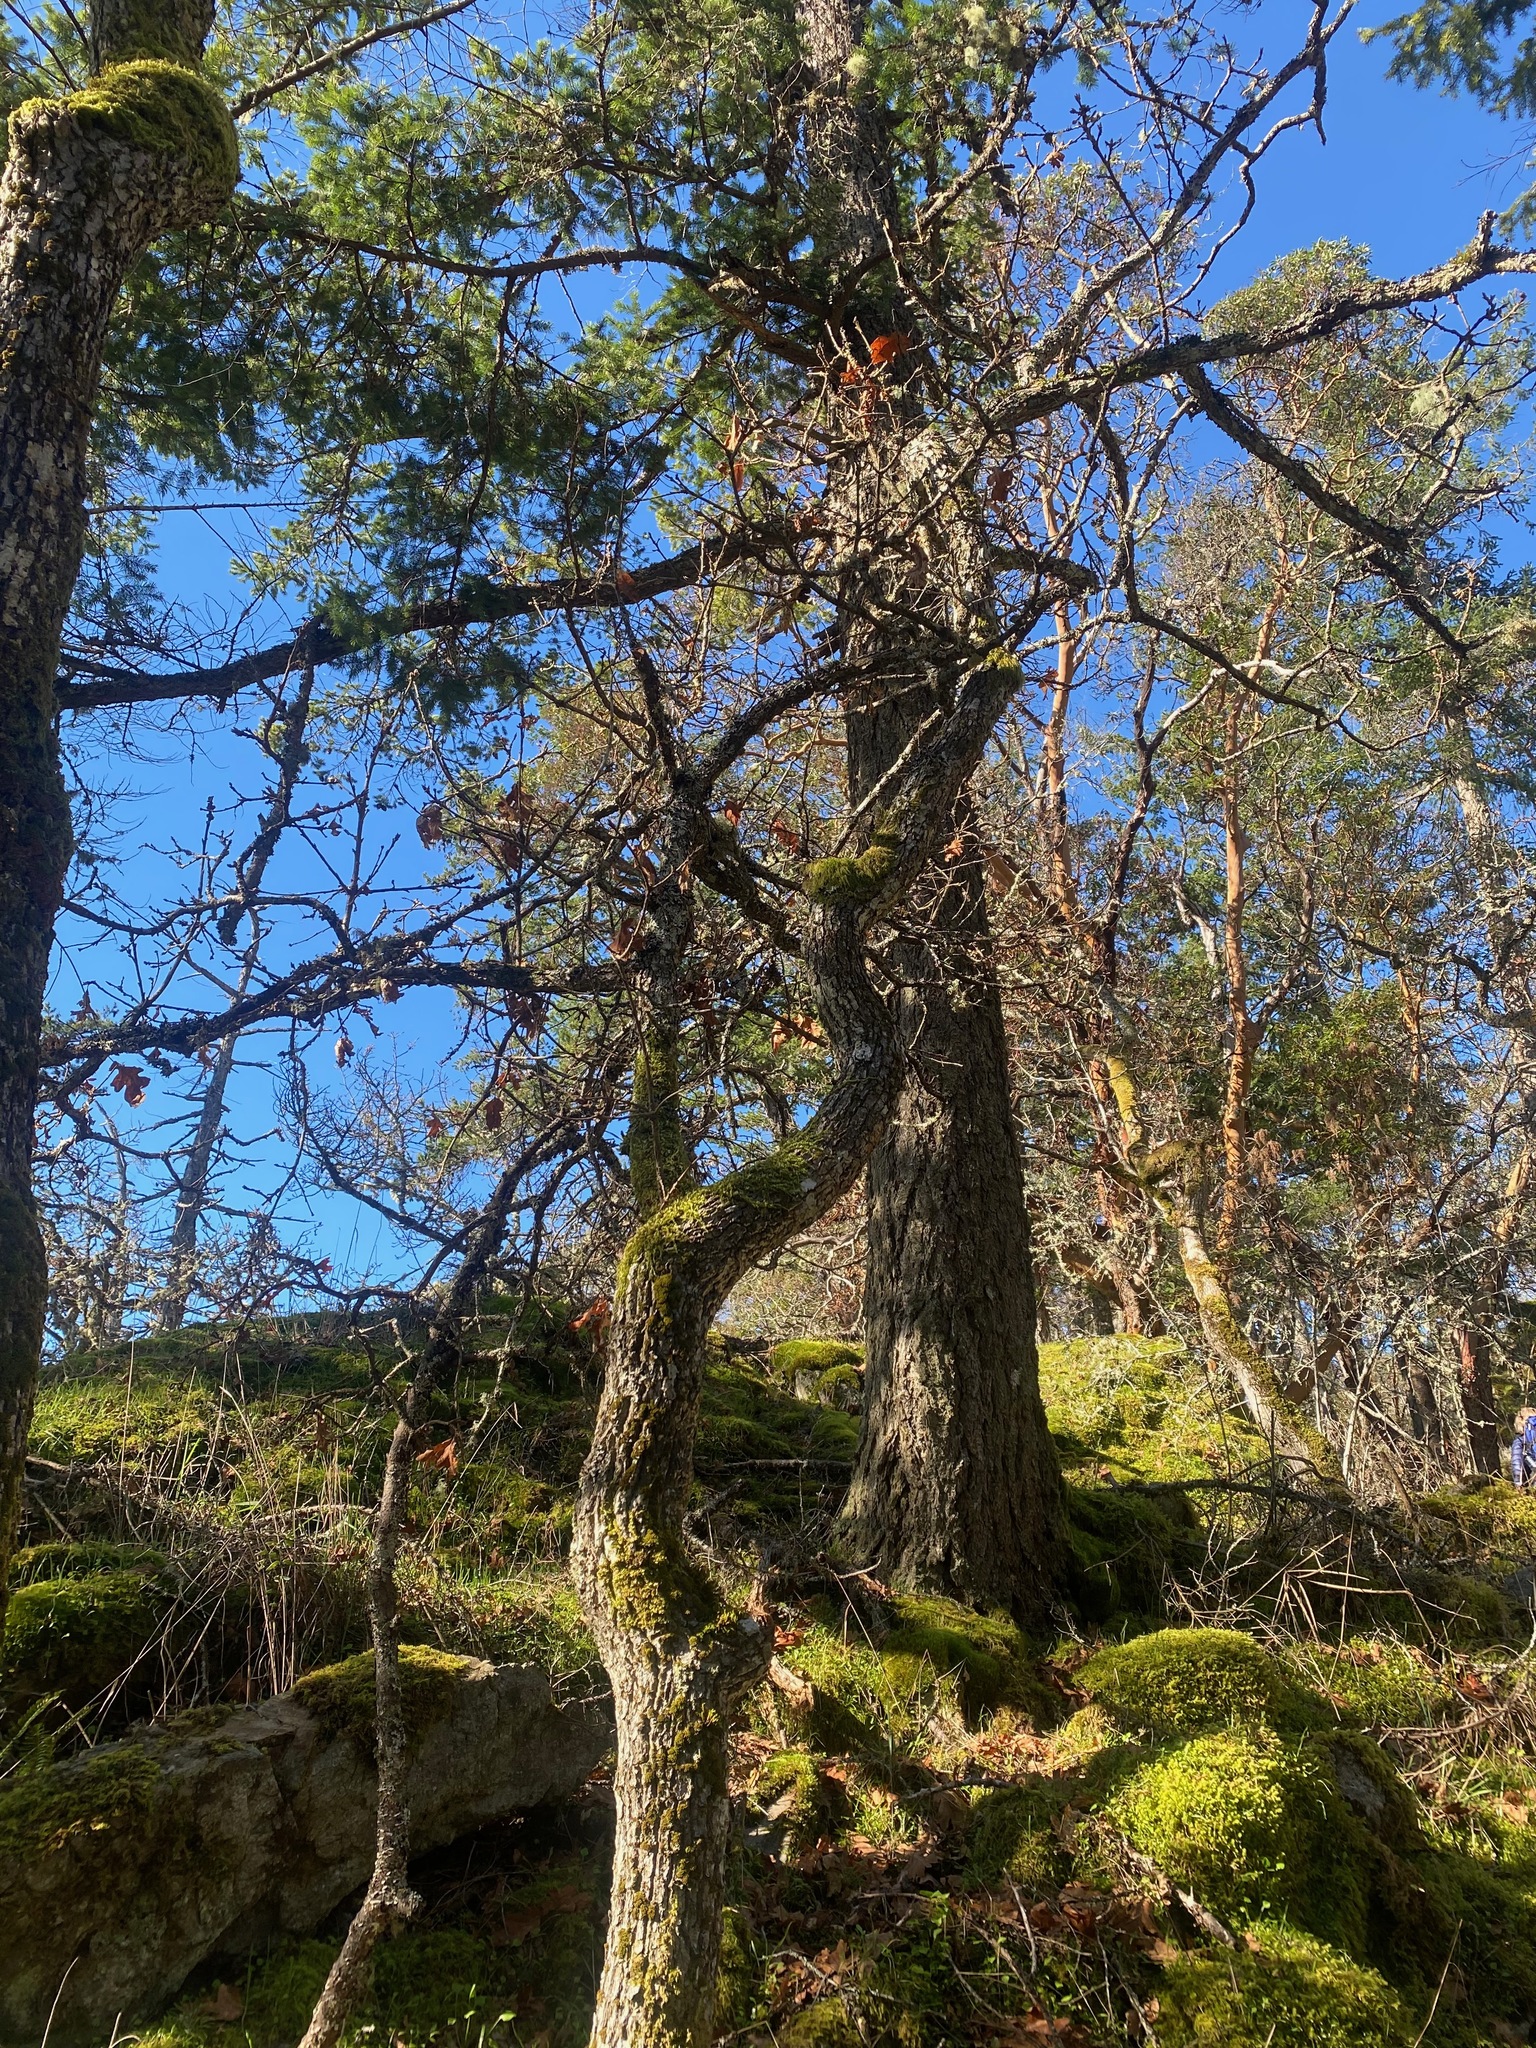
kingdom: Plantae
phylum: Tracheophyta
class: Magnoliopsida
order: Fagales
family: Fagaceae
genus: Quercus
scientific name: Quercus garryana
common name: Garry oak
